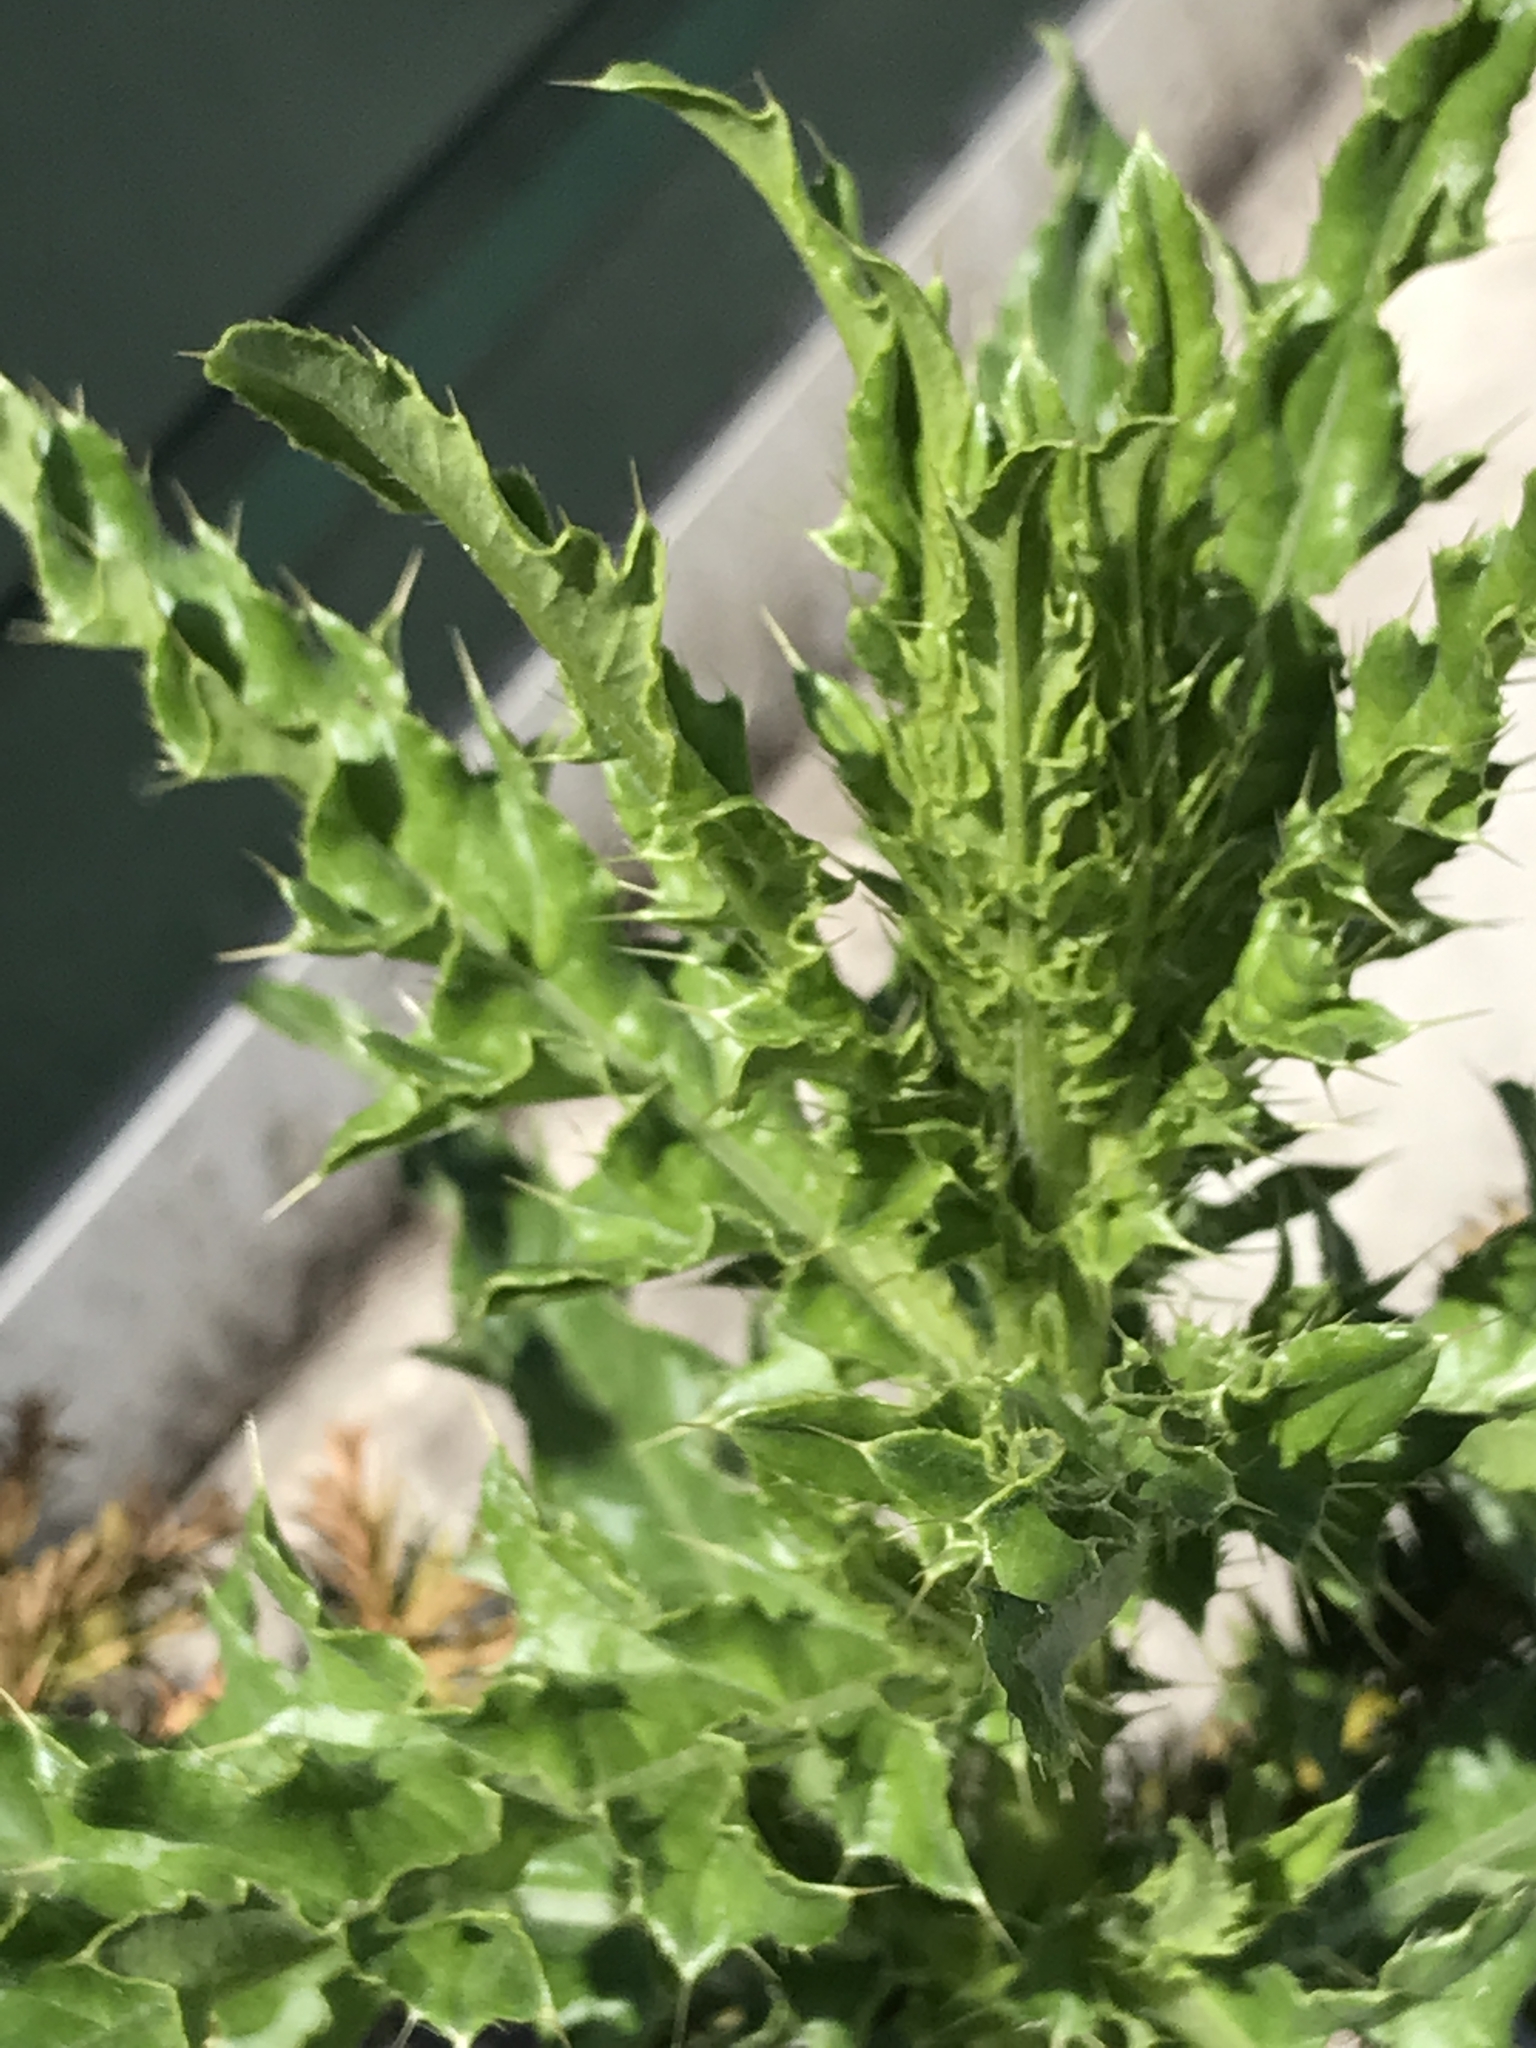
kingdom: Plantae
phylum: Tracheophyta
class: Magnoliopsida
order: Asterales
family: Asteraceae
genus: Cirsium
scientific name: Cirsium arvense
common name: Creeping thistle
